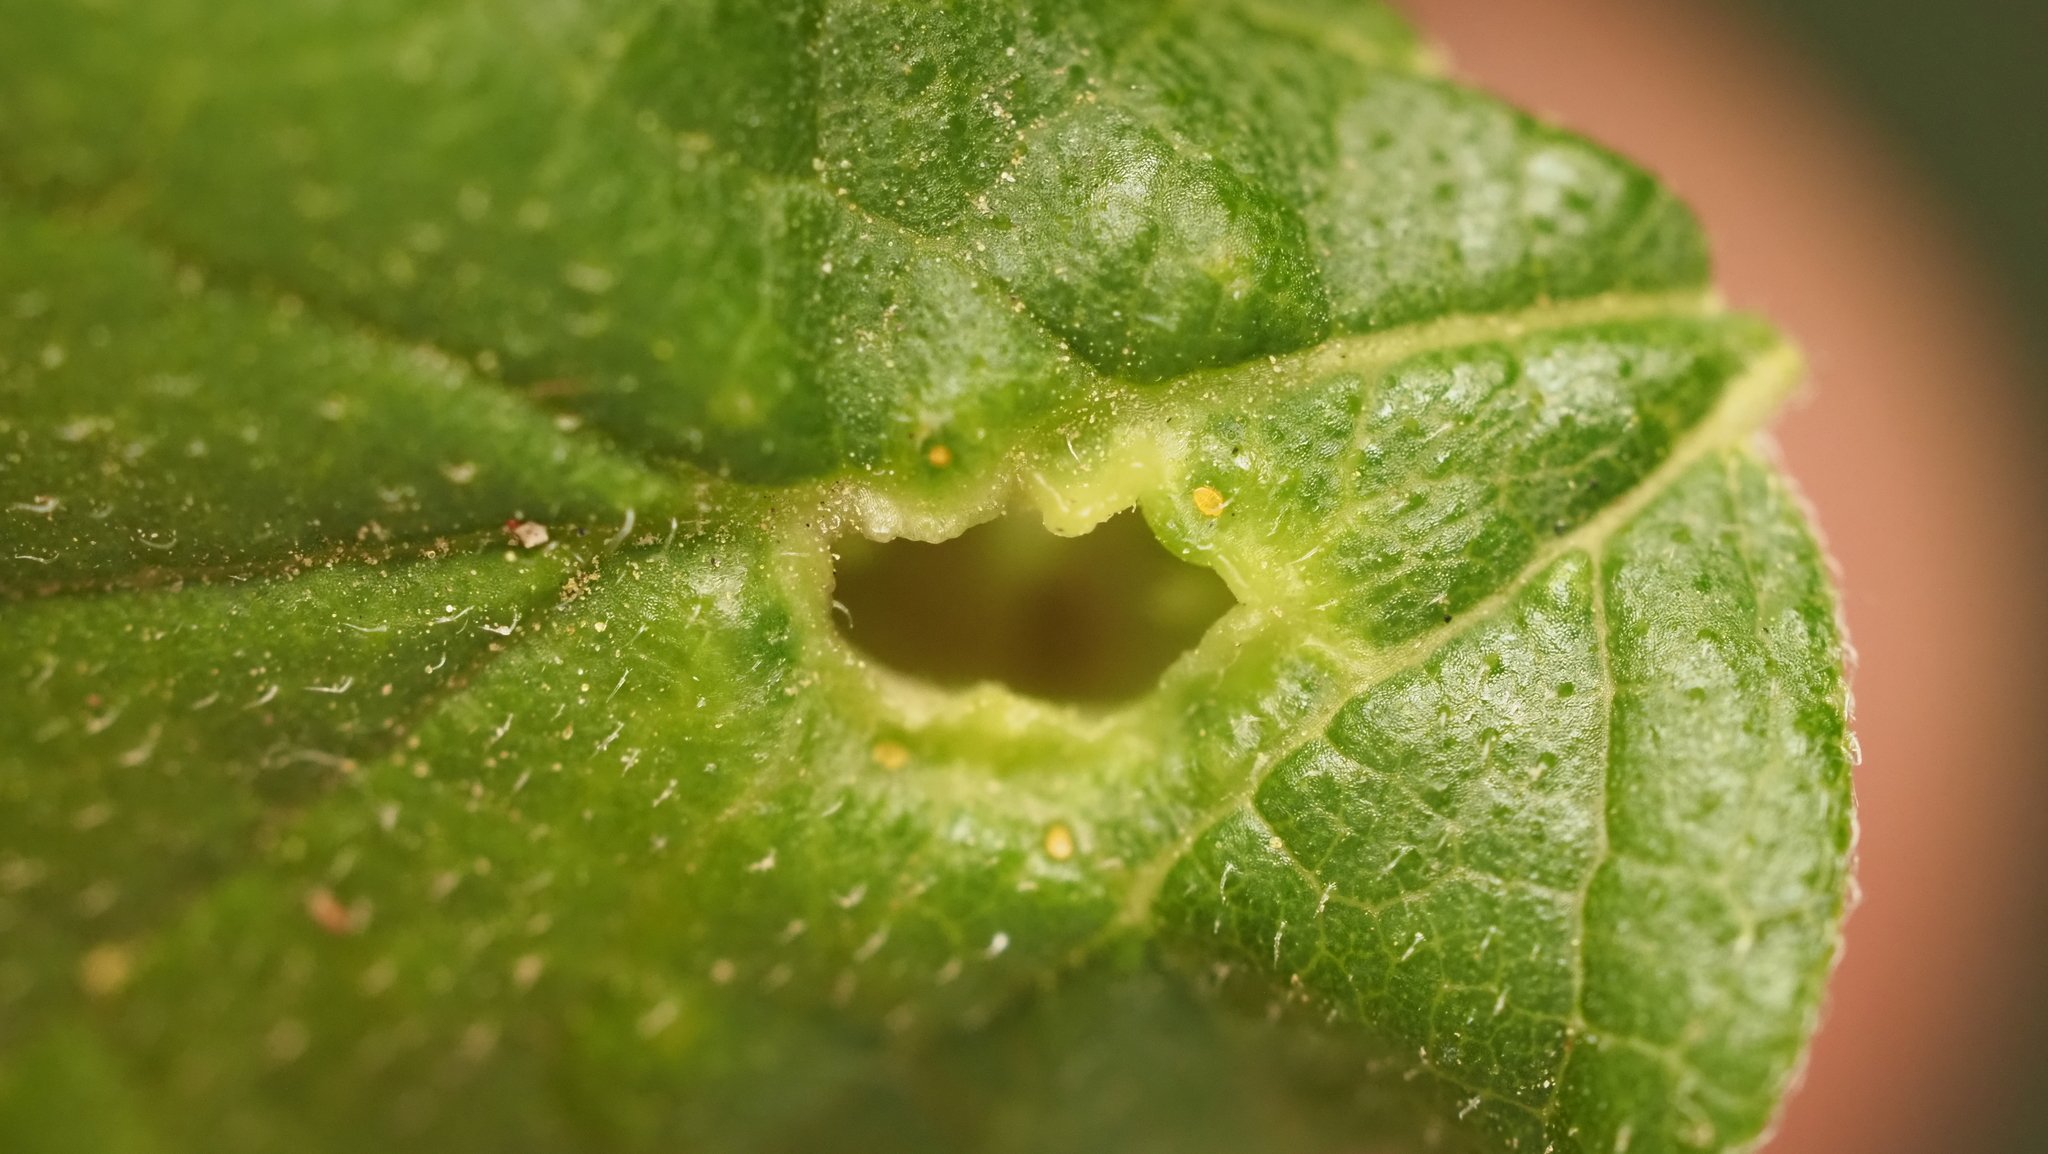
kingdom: Animalia
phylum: Arthropoda
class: Insecta
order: Hemiptera
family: Aphalaridae
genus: Pachypsylla
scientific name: Pachypsylla celtidismamma
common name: Hackberry nipplegall psyllid
